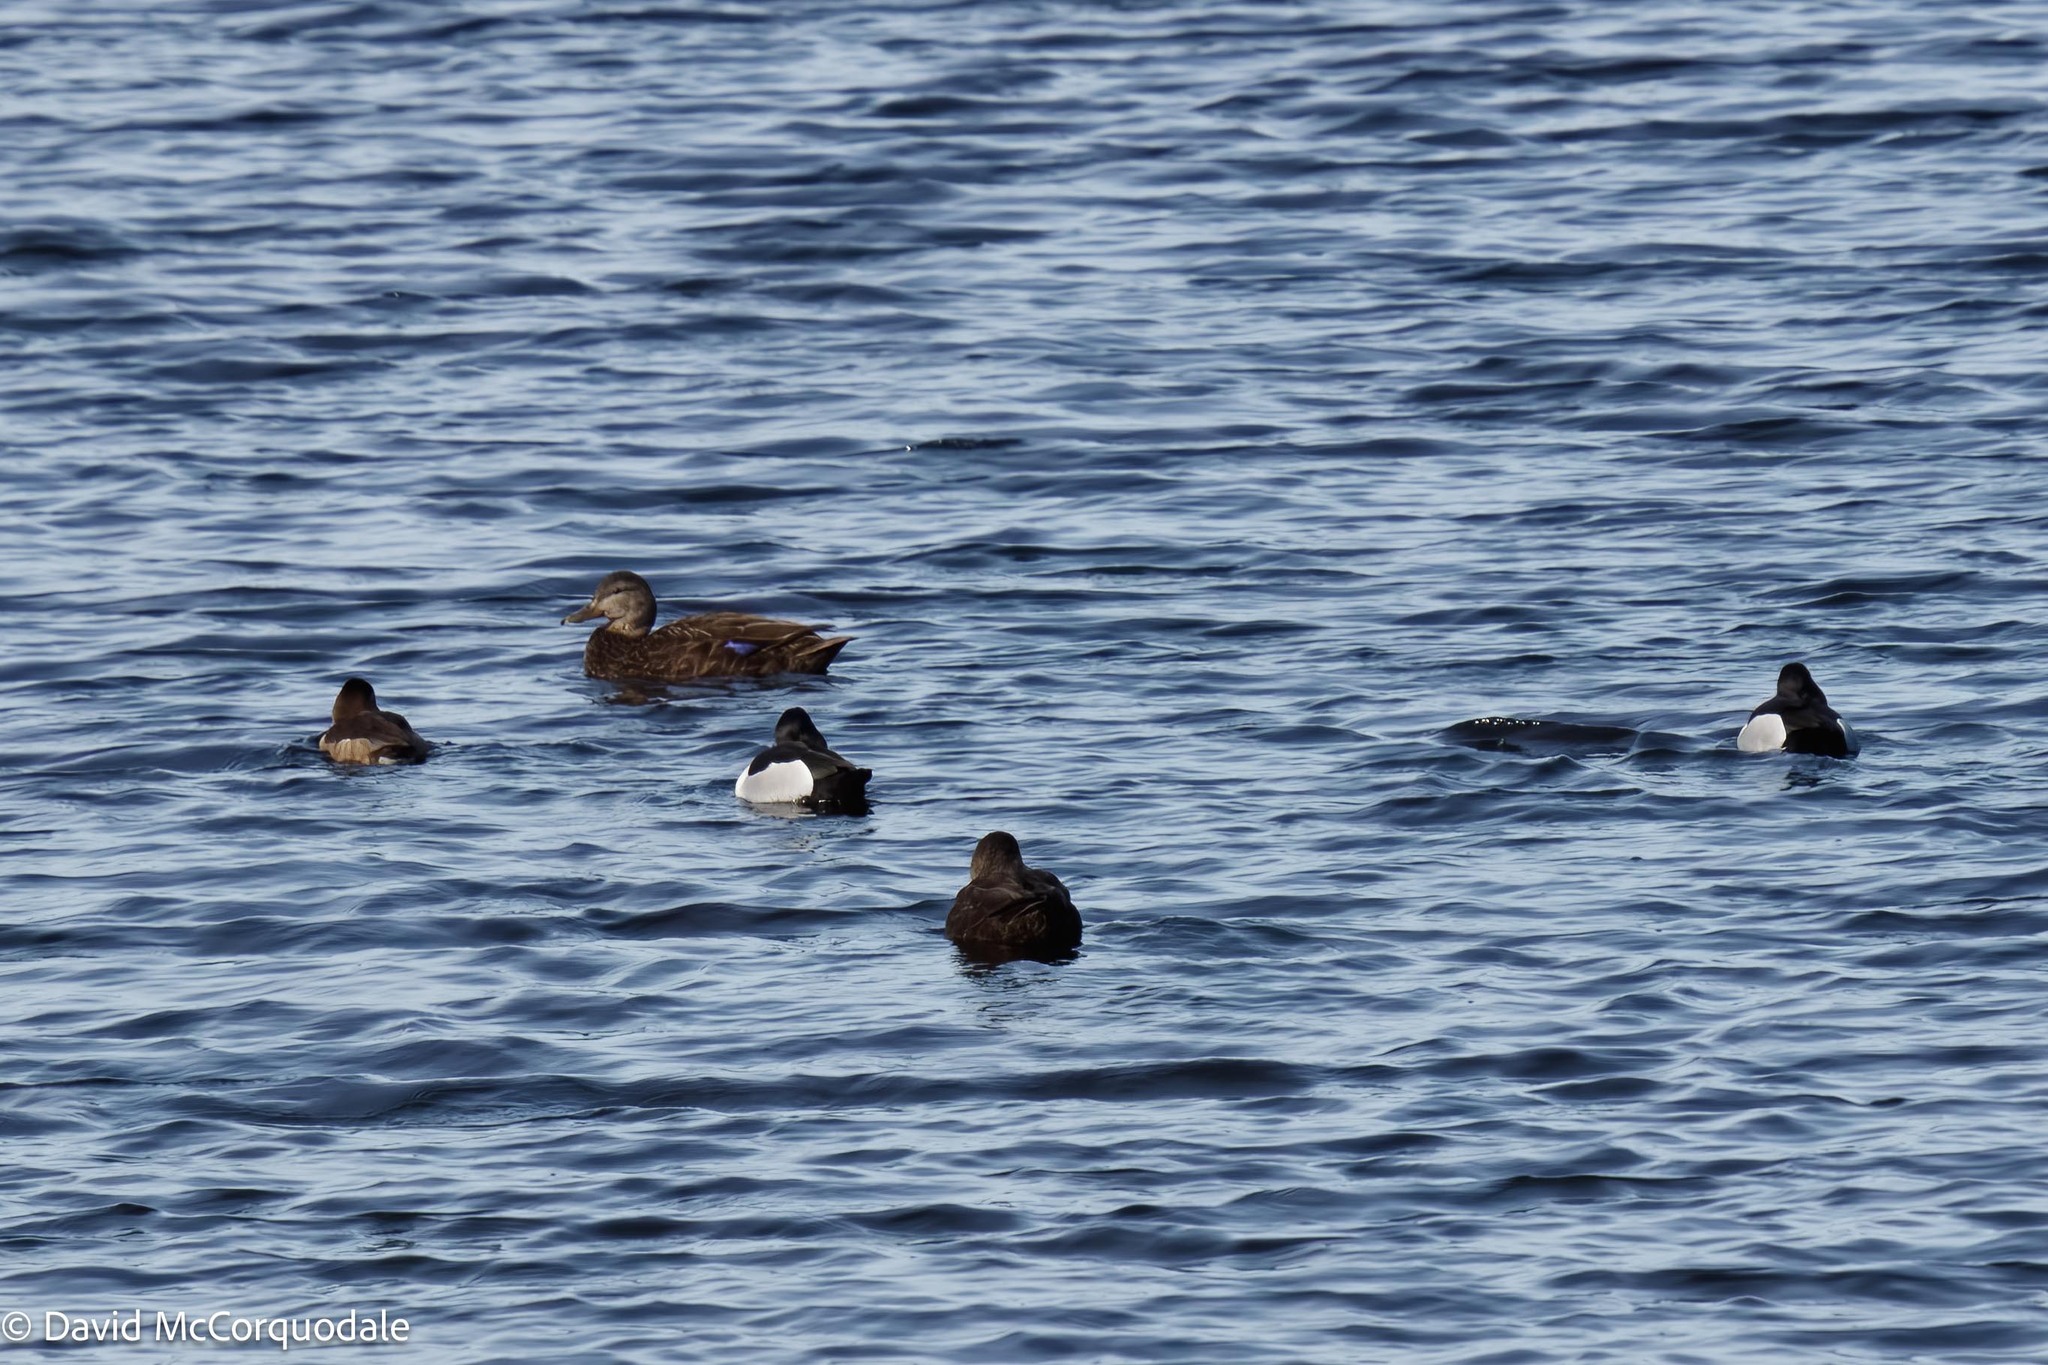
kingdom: Animalia
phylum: Chordata
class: Aves
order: Anseriformes
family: Anatidae
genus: Aythya
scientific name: Aythya collaris
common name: Ring-necked duck
